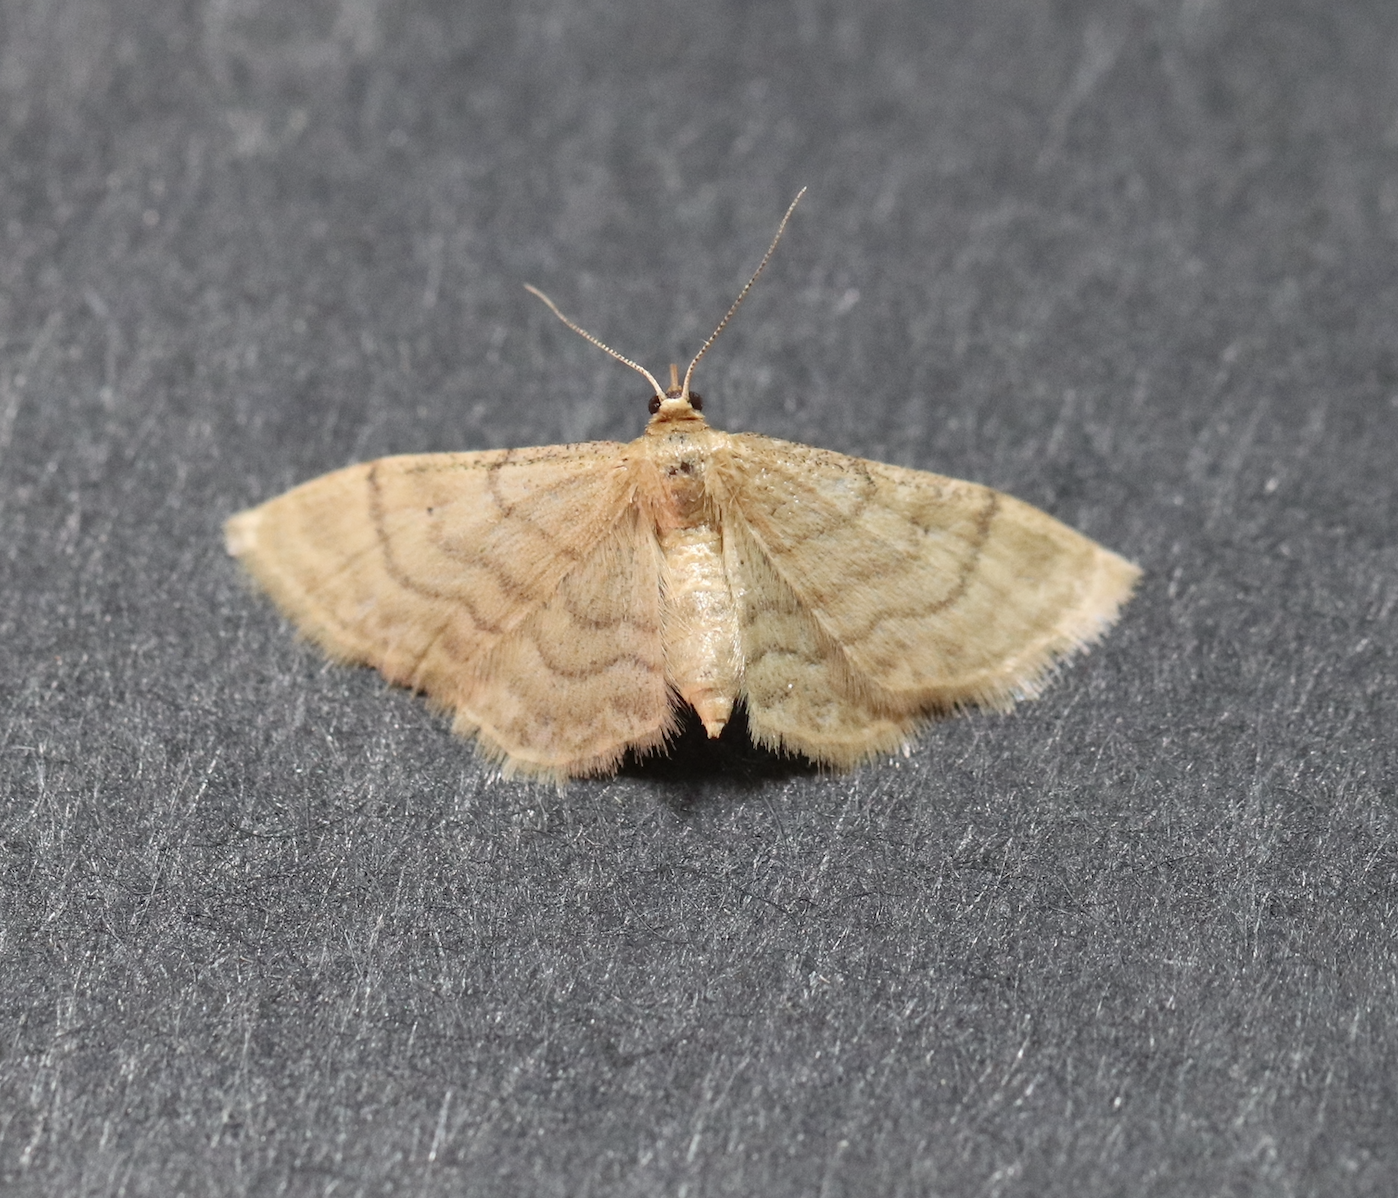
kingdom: Animalia
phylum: Arthropoda
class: Insecta
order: Lepidoptera
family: Geometridae
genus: Idaea
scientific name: Idaea dilutaria
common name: Silky wave
